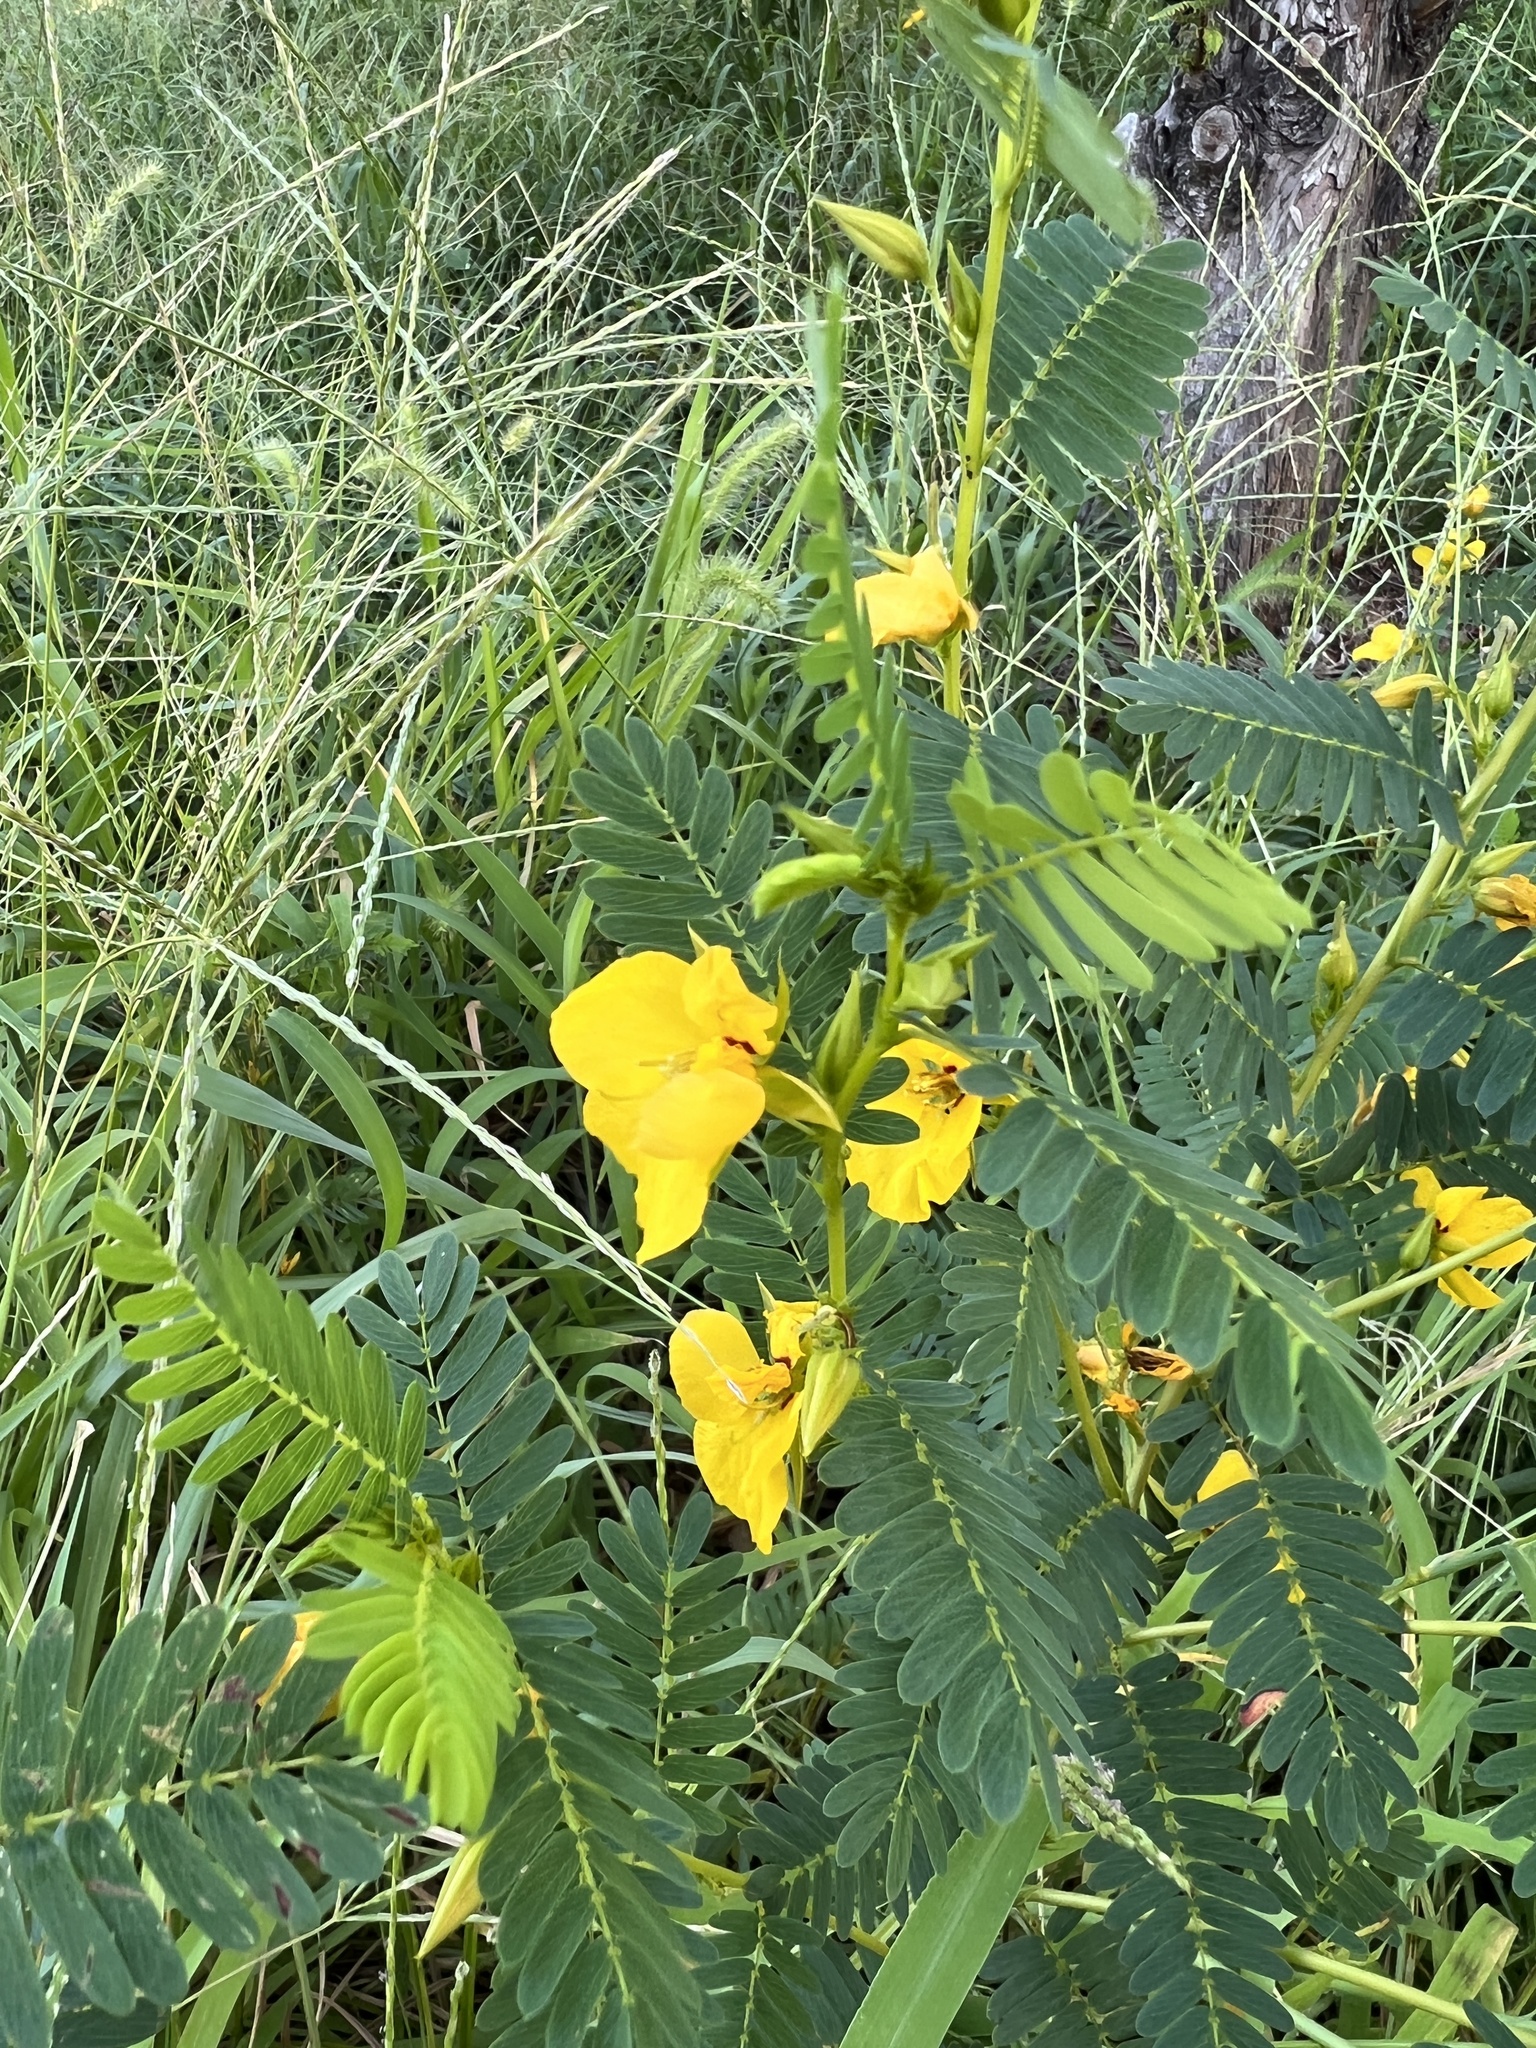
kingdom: Plantae
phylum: Tracheophyta
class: Magnoliopsida
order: Fabales
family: Fabaceae
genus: Chamaecrista
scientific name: Chamaecrista fasciculata
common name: Golden cassia
